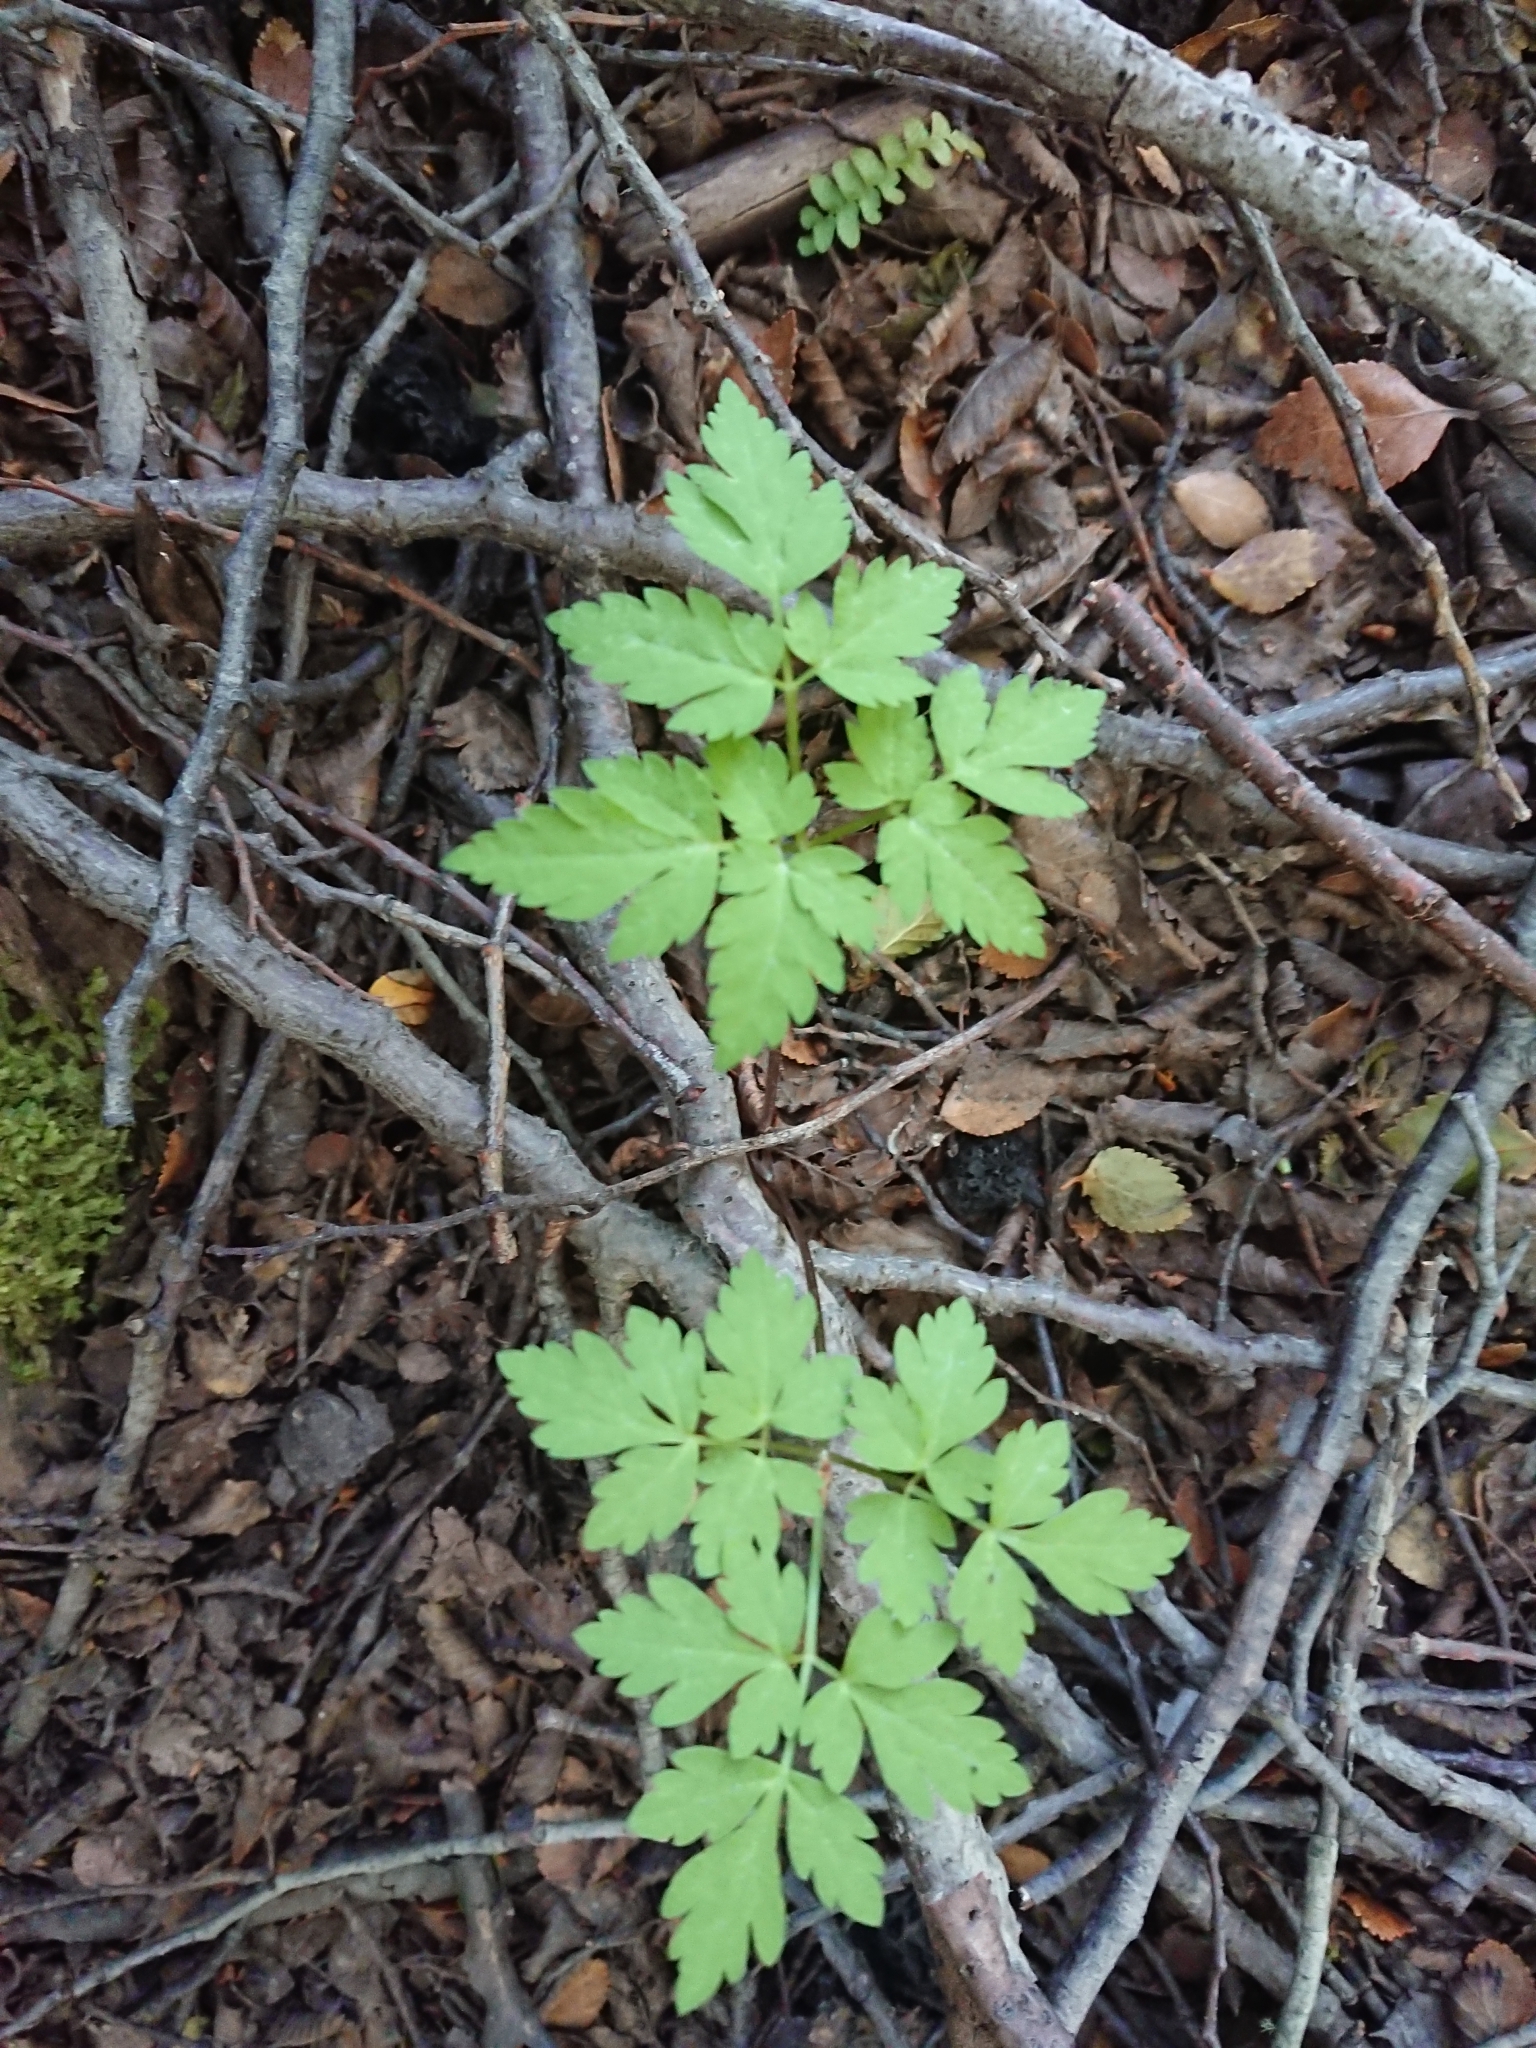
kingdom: Plantae
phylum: Tracheophyta
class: Magnoliopsida
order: Apiales
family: Apiaceae
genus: Osmorhiza
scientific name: Osmorhiza berteroi
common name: Mountain sweet cicely
